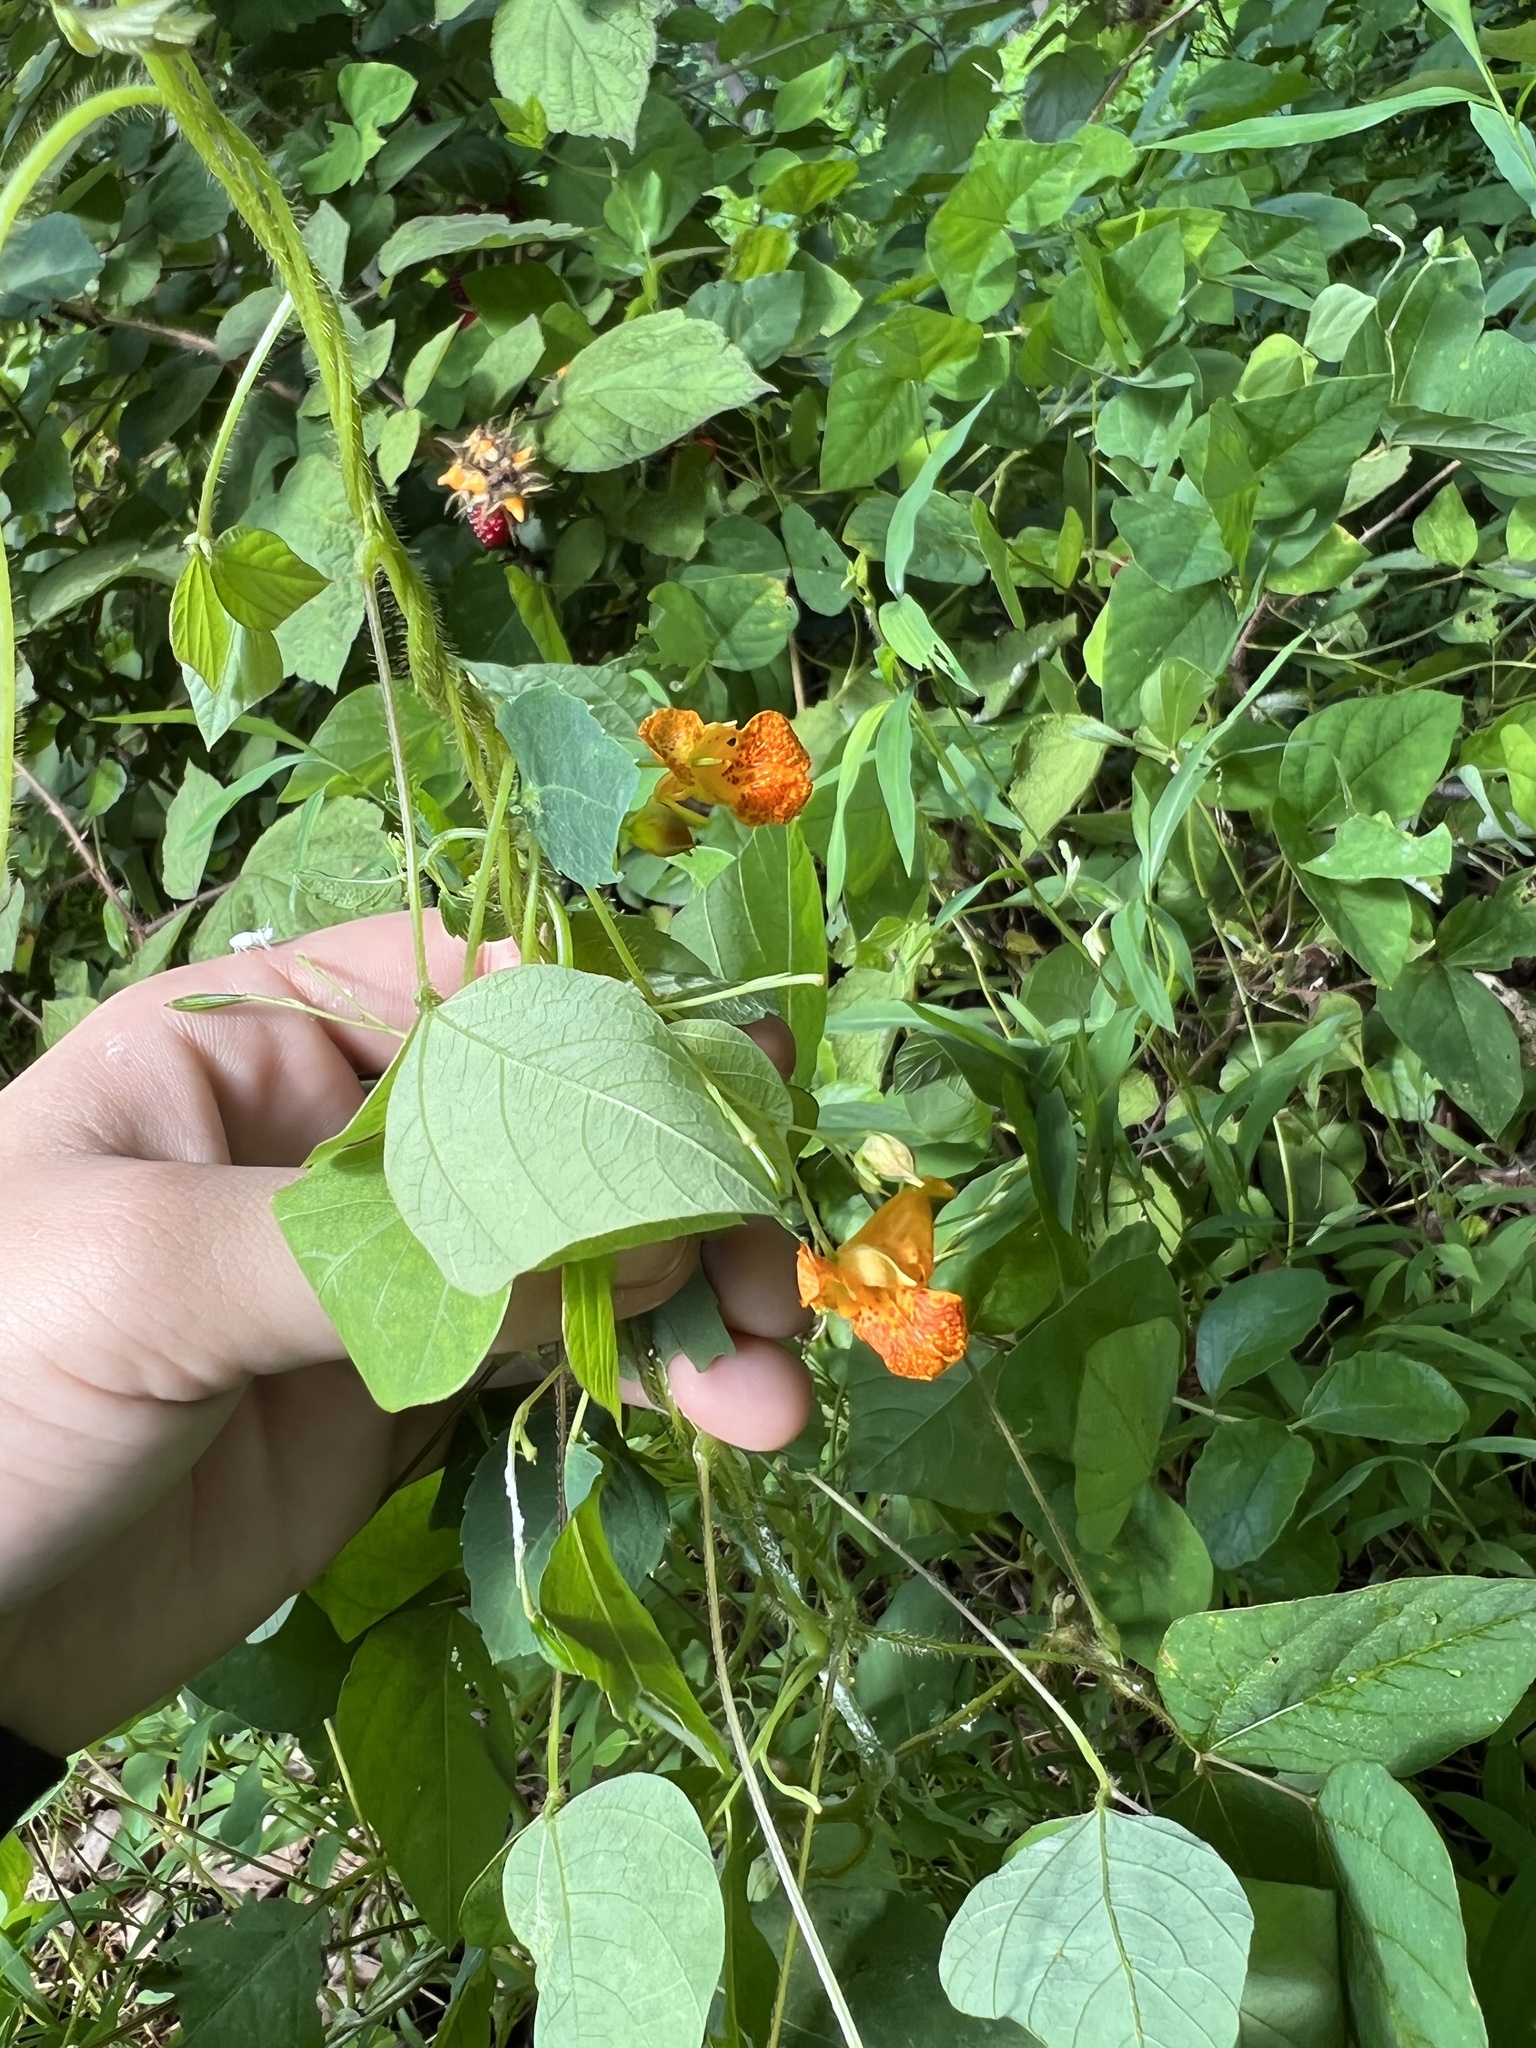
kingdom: Plantae
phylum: Tracheophyta
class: Magnoliopsida
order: Ericales
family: Balsaminaceae
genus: Impatiens
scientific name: Impatiens capensis
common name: Orange balsam
